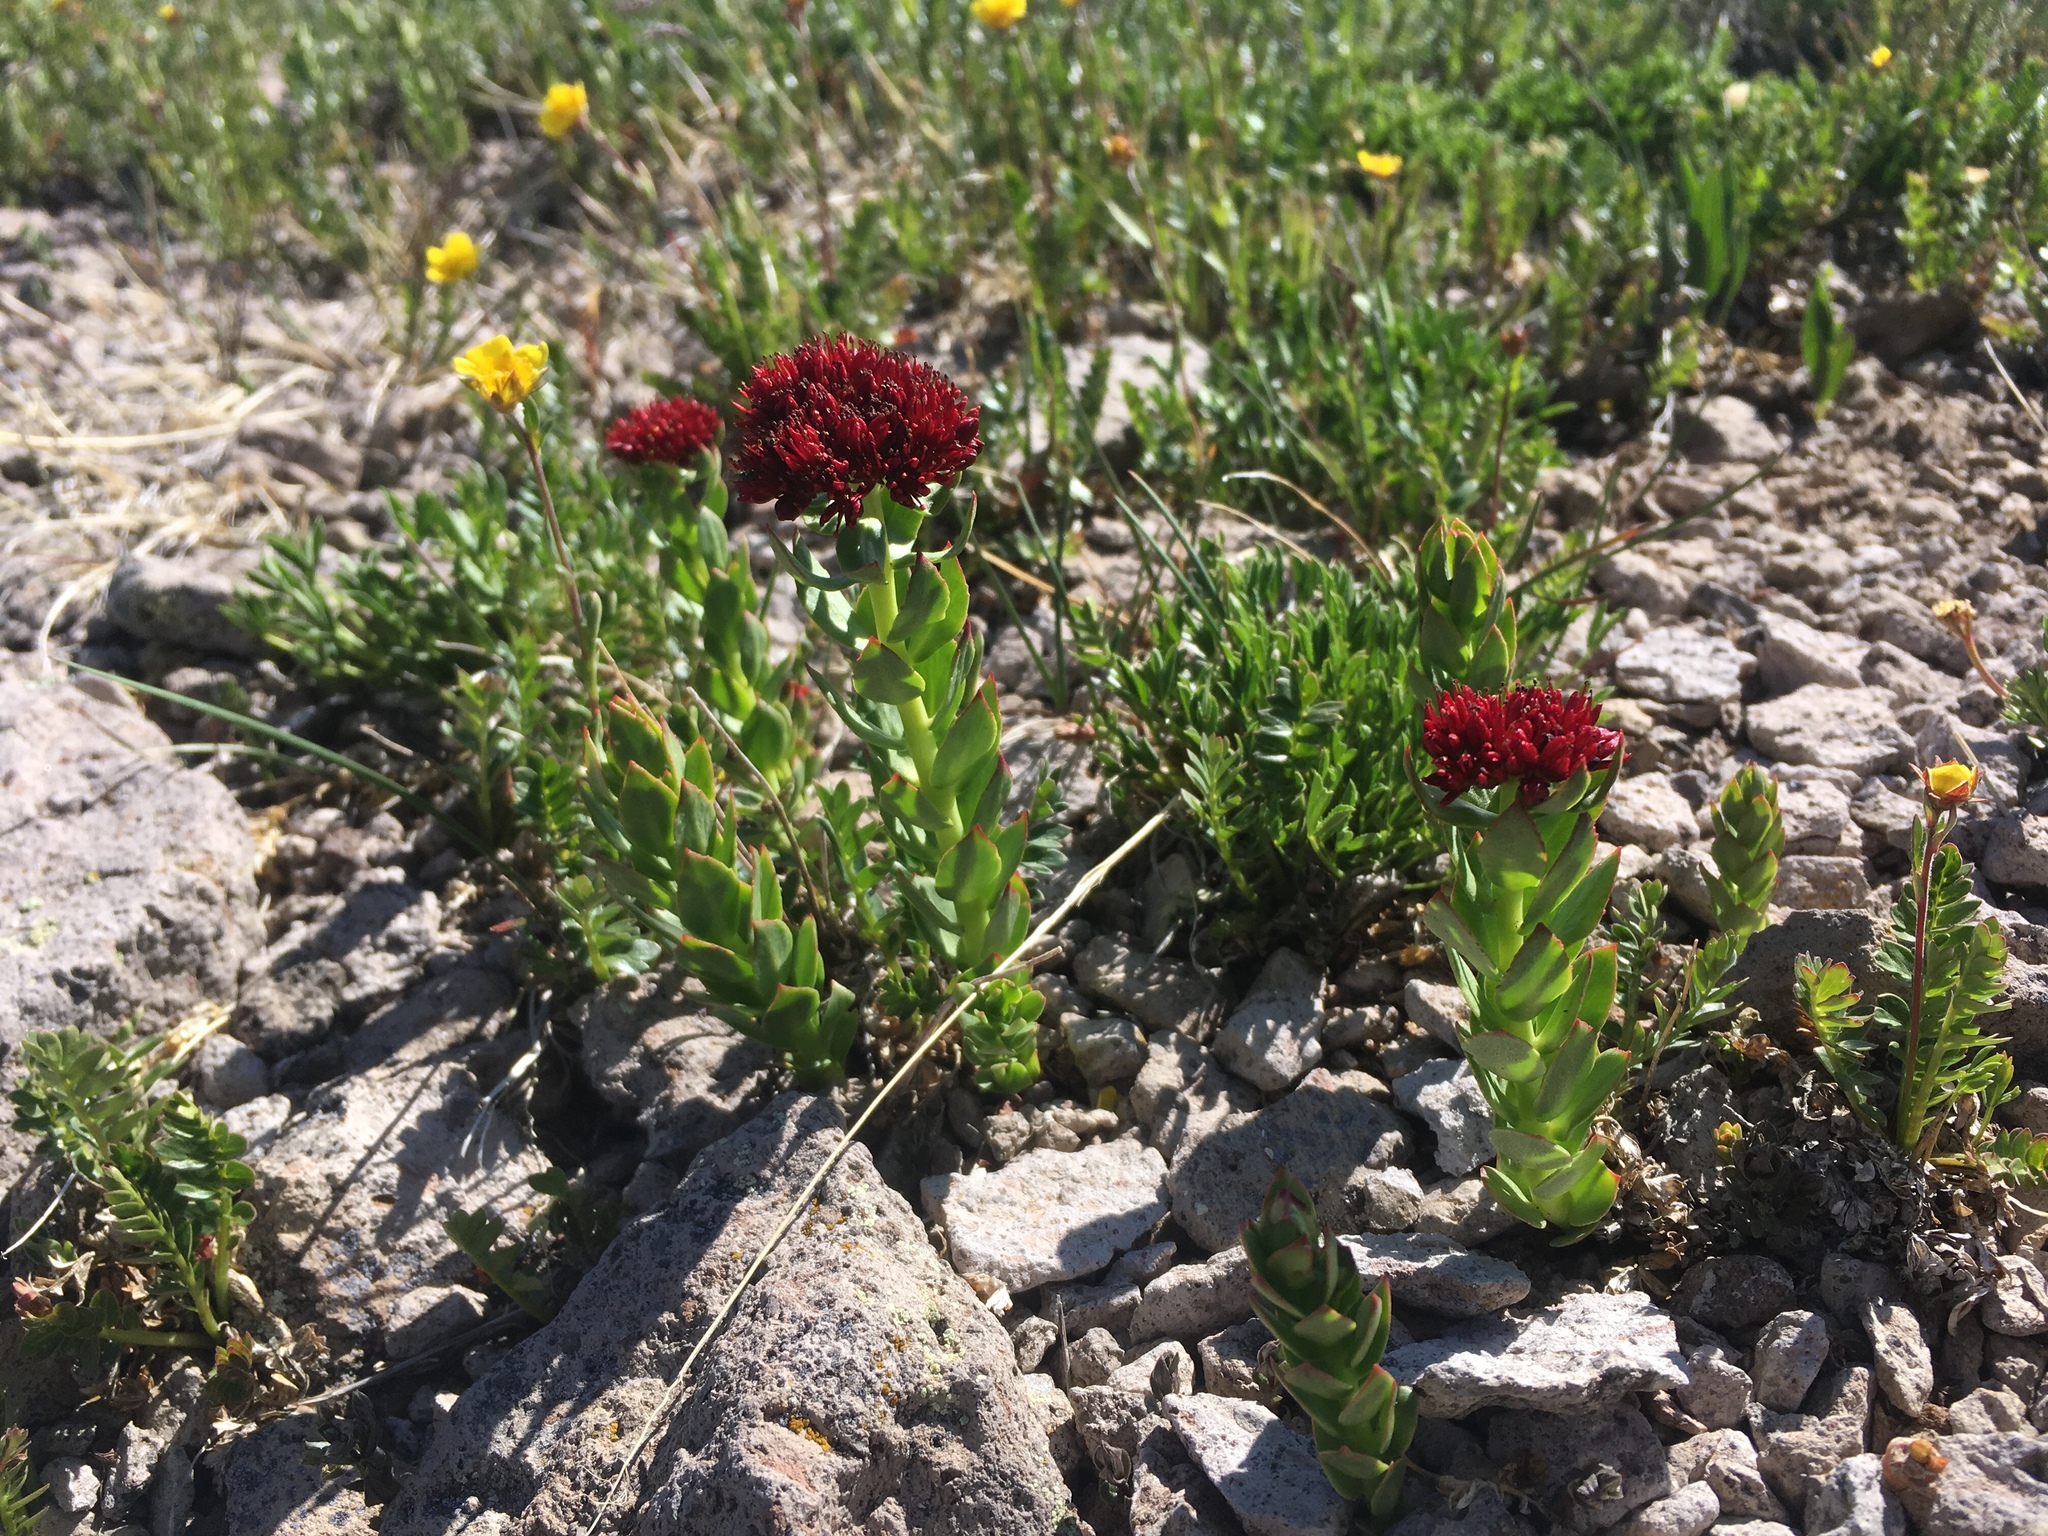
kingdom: Plantae
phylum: Tracheophyta
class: Magnoliopsida
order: Saxifragales
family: Crassulaceae
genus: Rhodiola
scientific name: Rhodiola integrifolia
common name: Western roseroot
